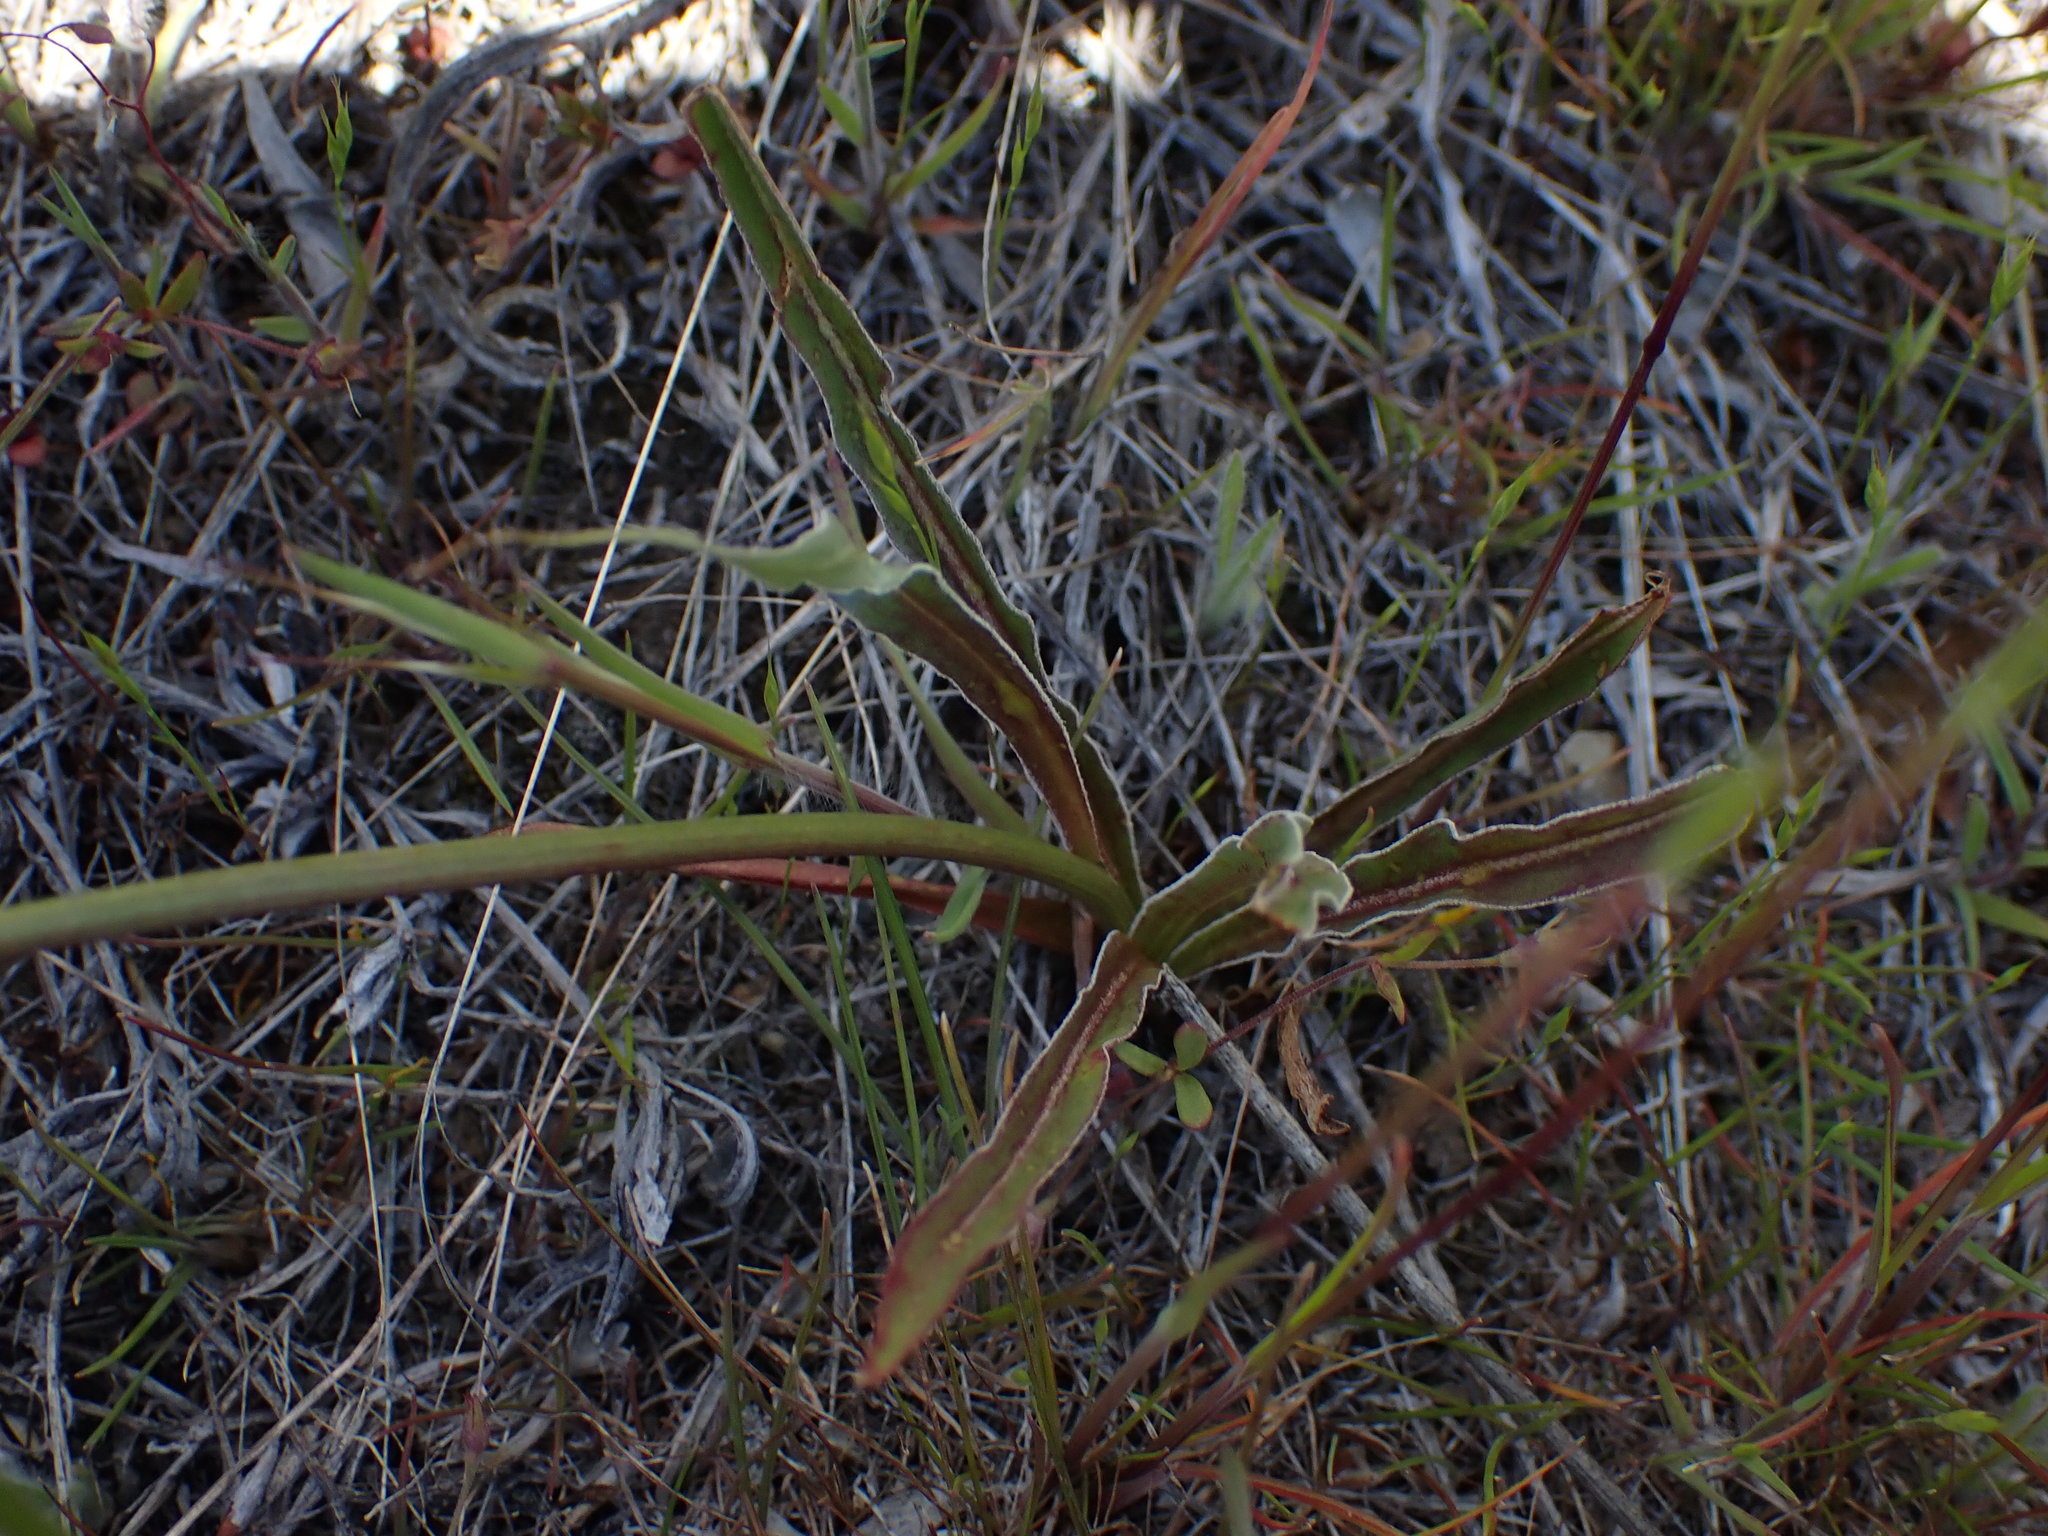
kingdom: Plantae
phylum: Tracheophyta
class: Magnoliopsida
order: Asterales
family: Asteraceae
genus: Microseris
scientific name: Microseris troximoides
